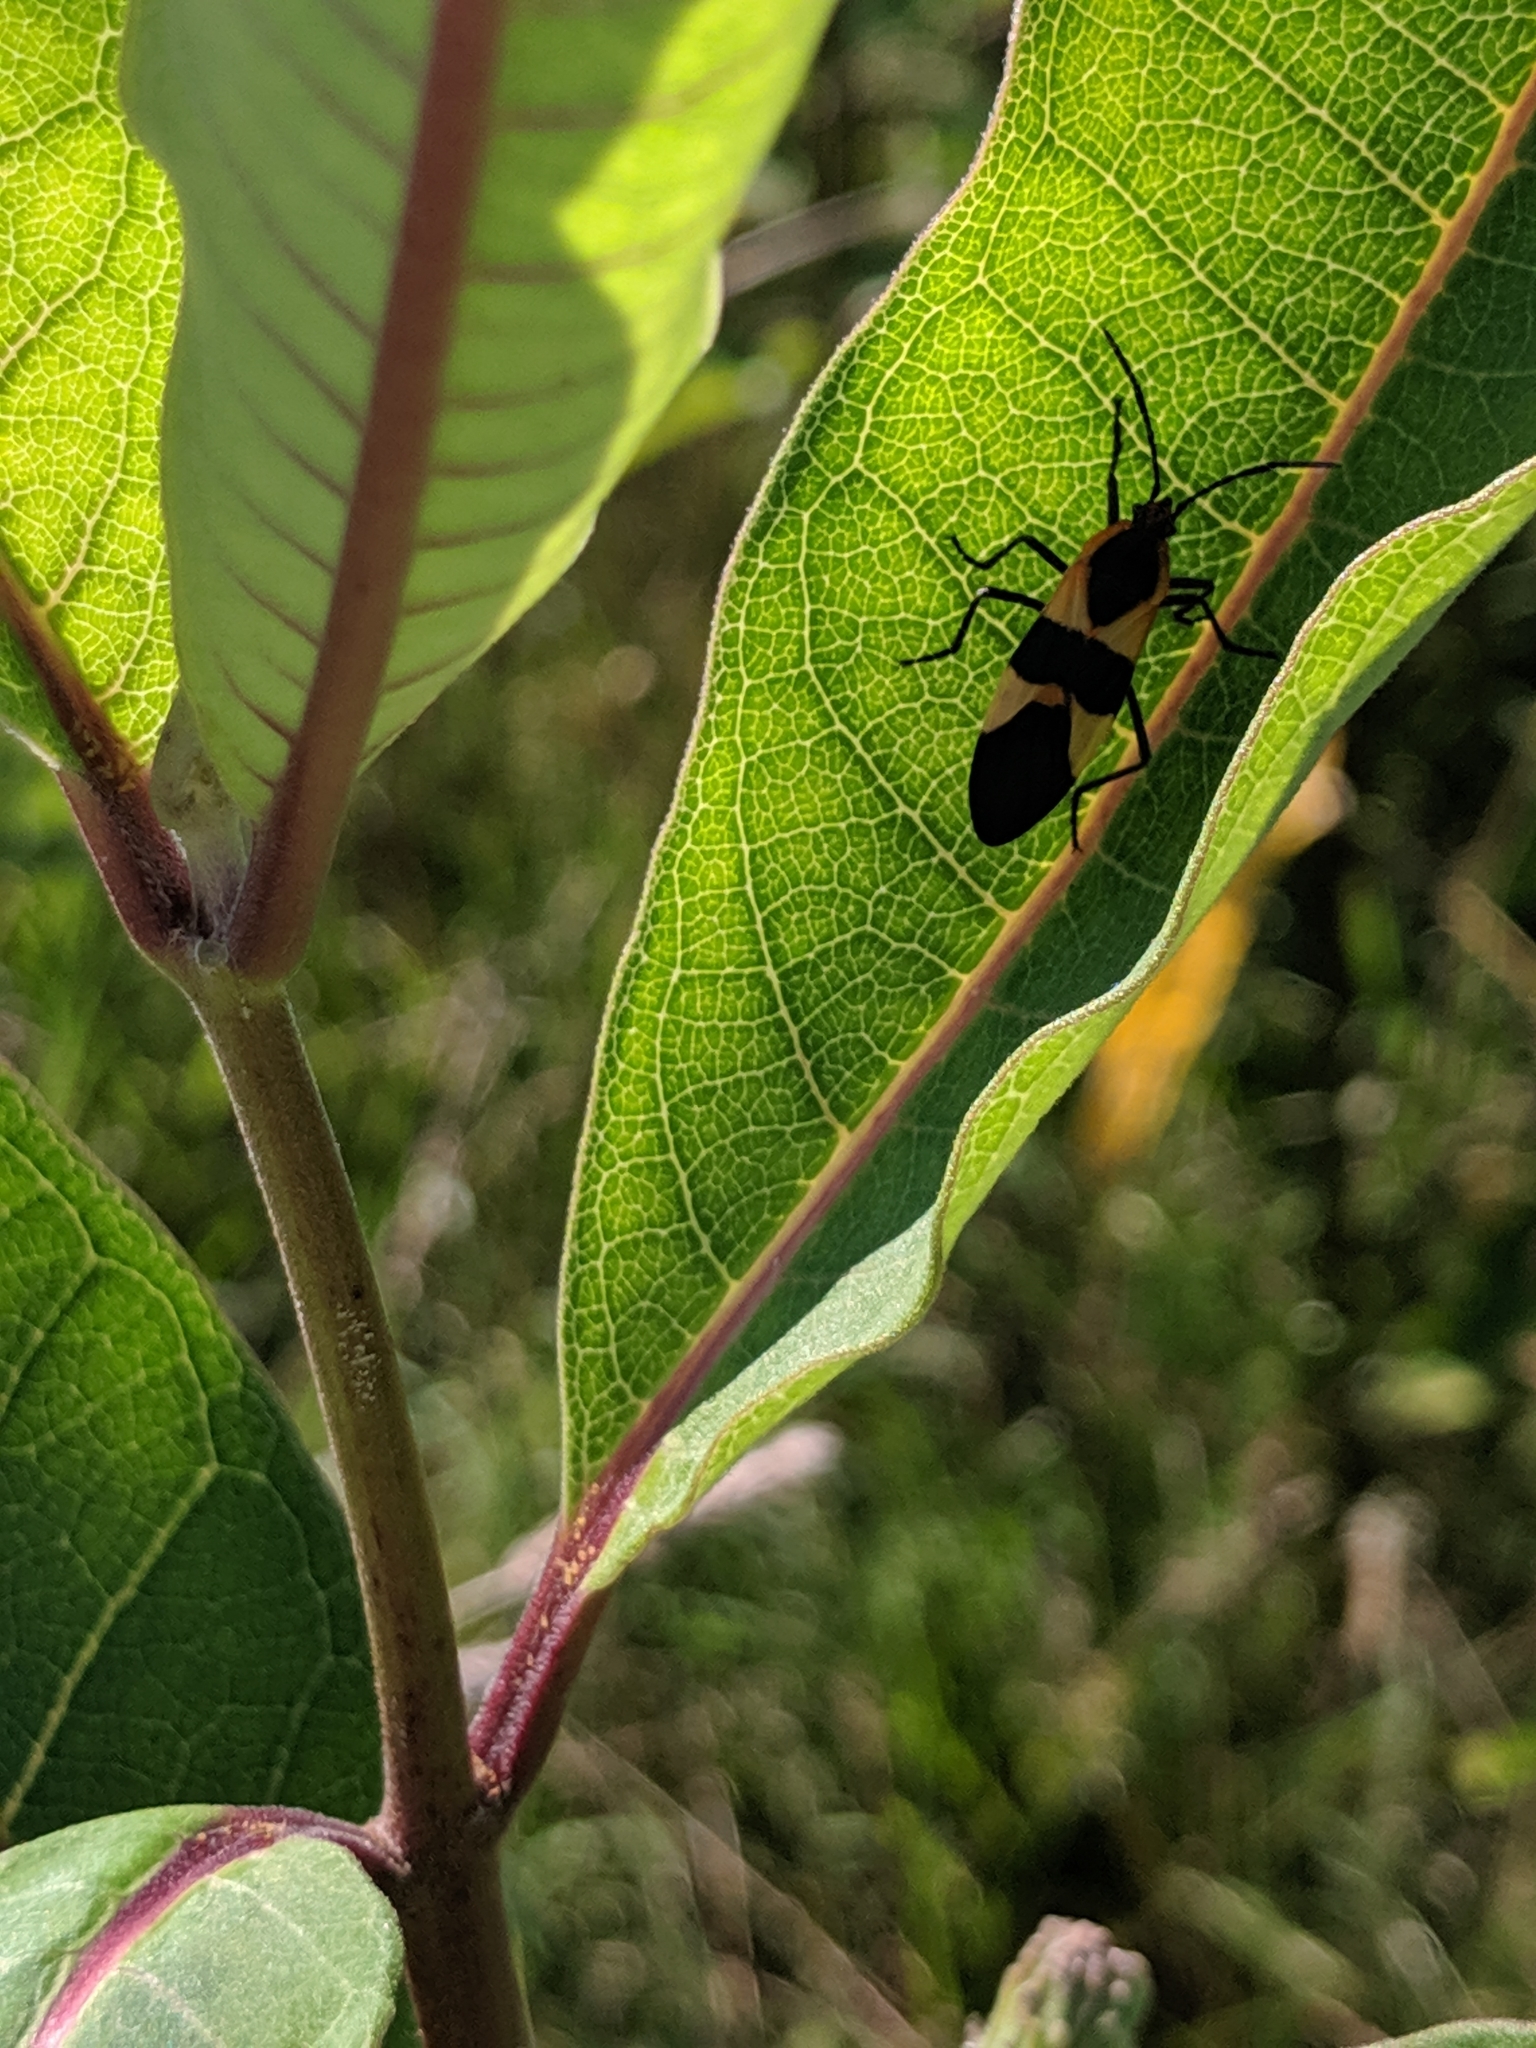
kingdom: Animalia
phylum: Arthropoda
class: Insecta
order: Hemiptera
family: Lygaeidae
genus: Oncopeltus
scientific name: Oncopeltus fasciatus
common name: Large milkweed bug
